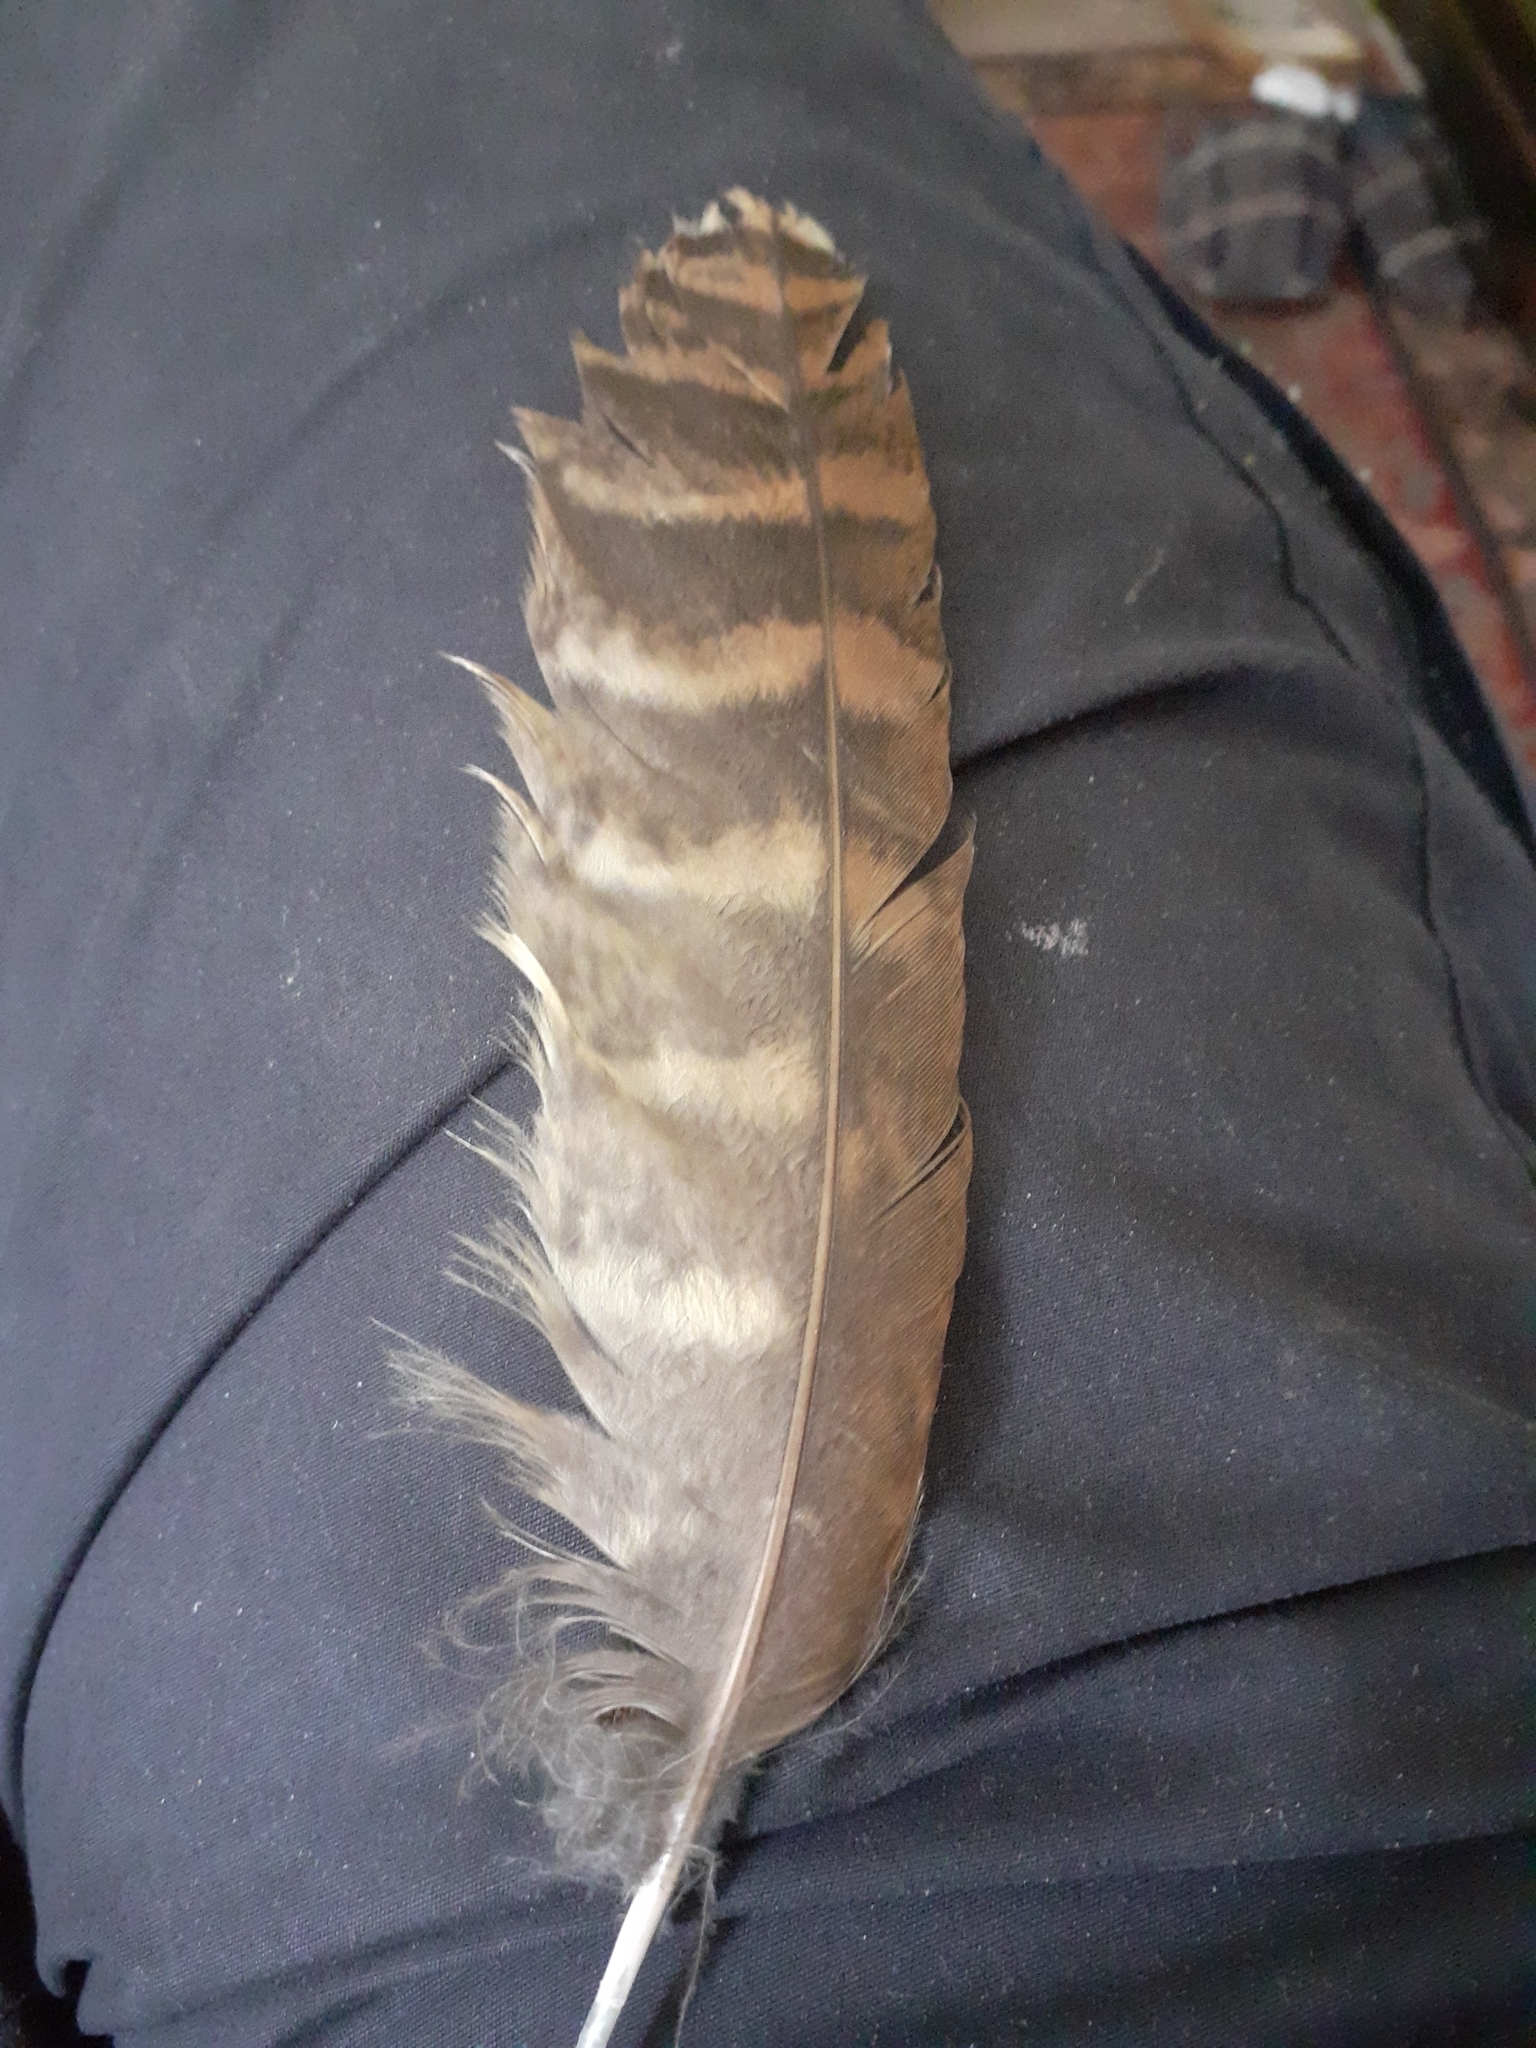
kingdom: Animalia
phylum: Chordata
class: Aves
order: Strigiformes
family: Strigidae
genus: Strix
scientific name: Strix aluco
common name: Tawny owl
